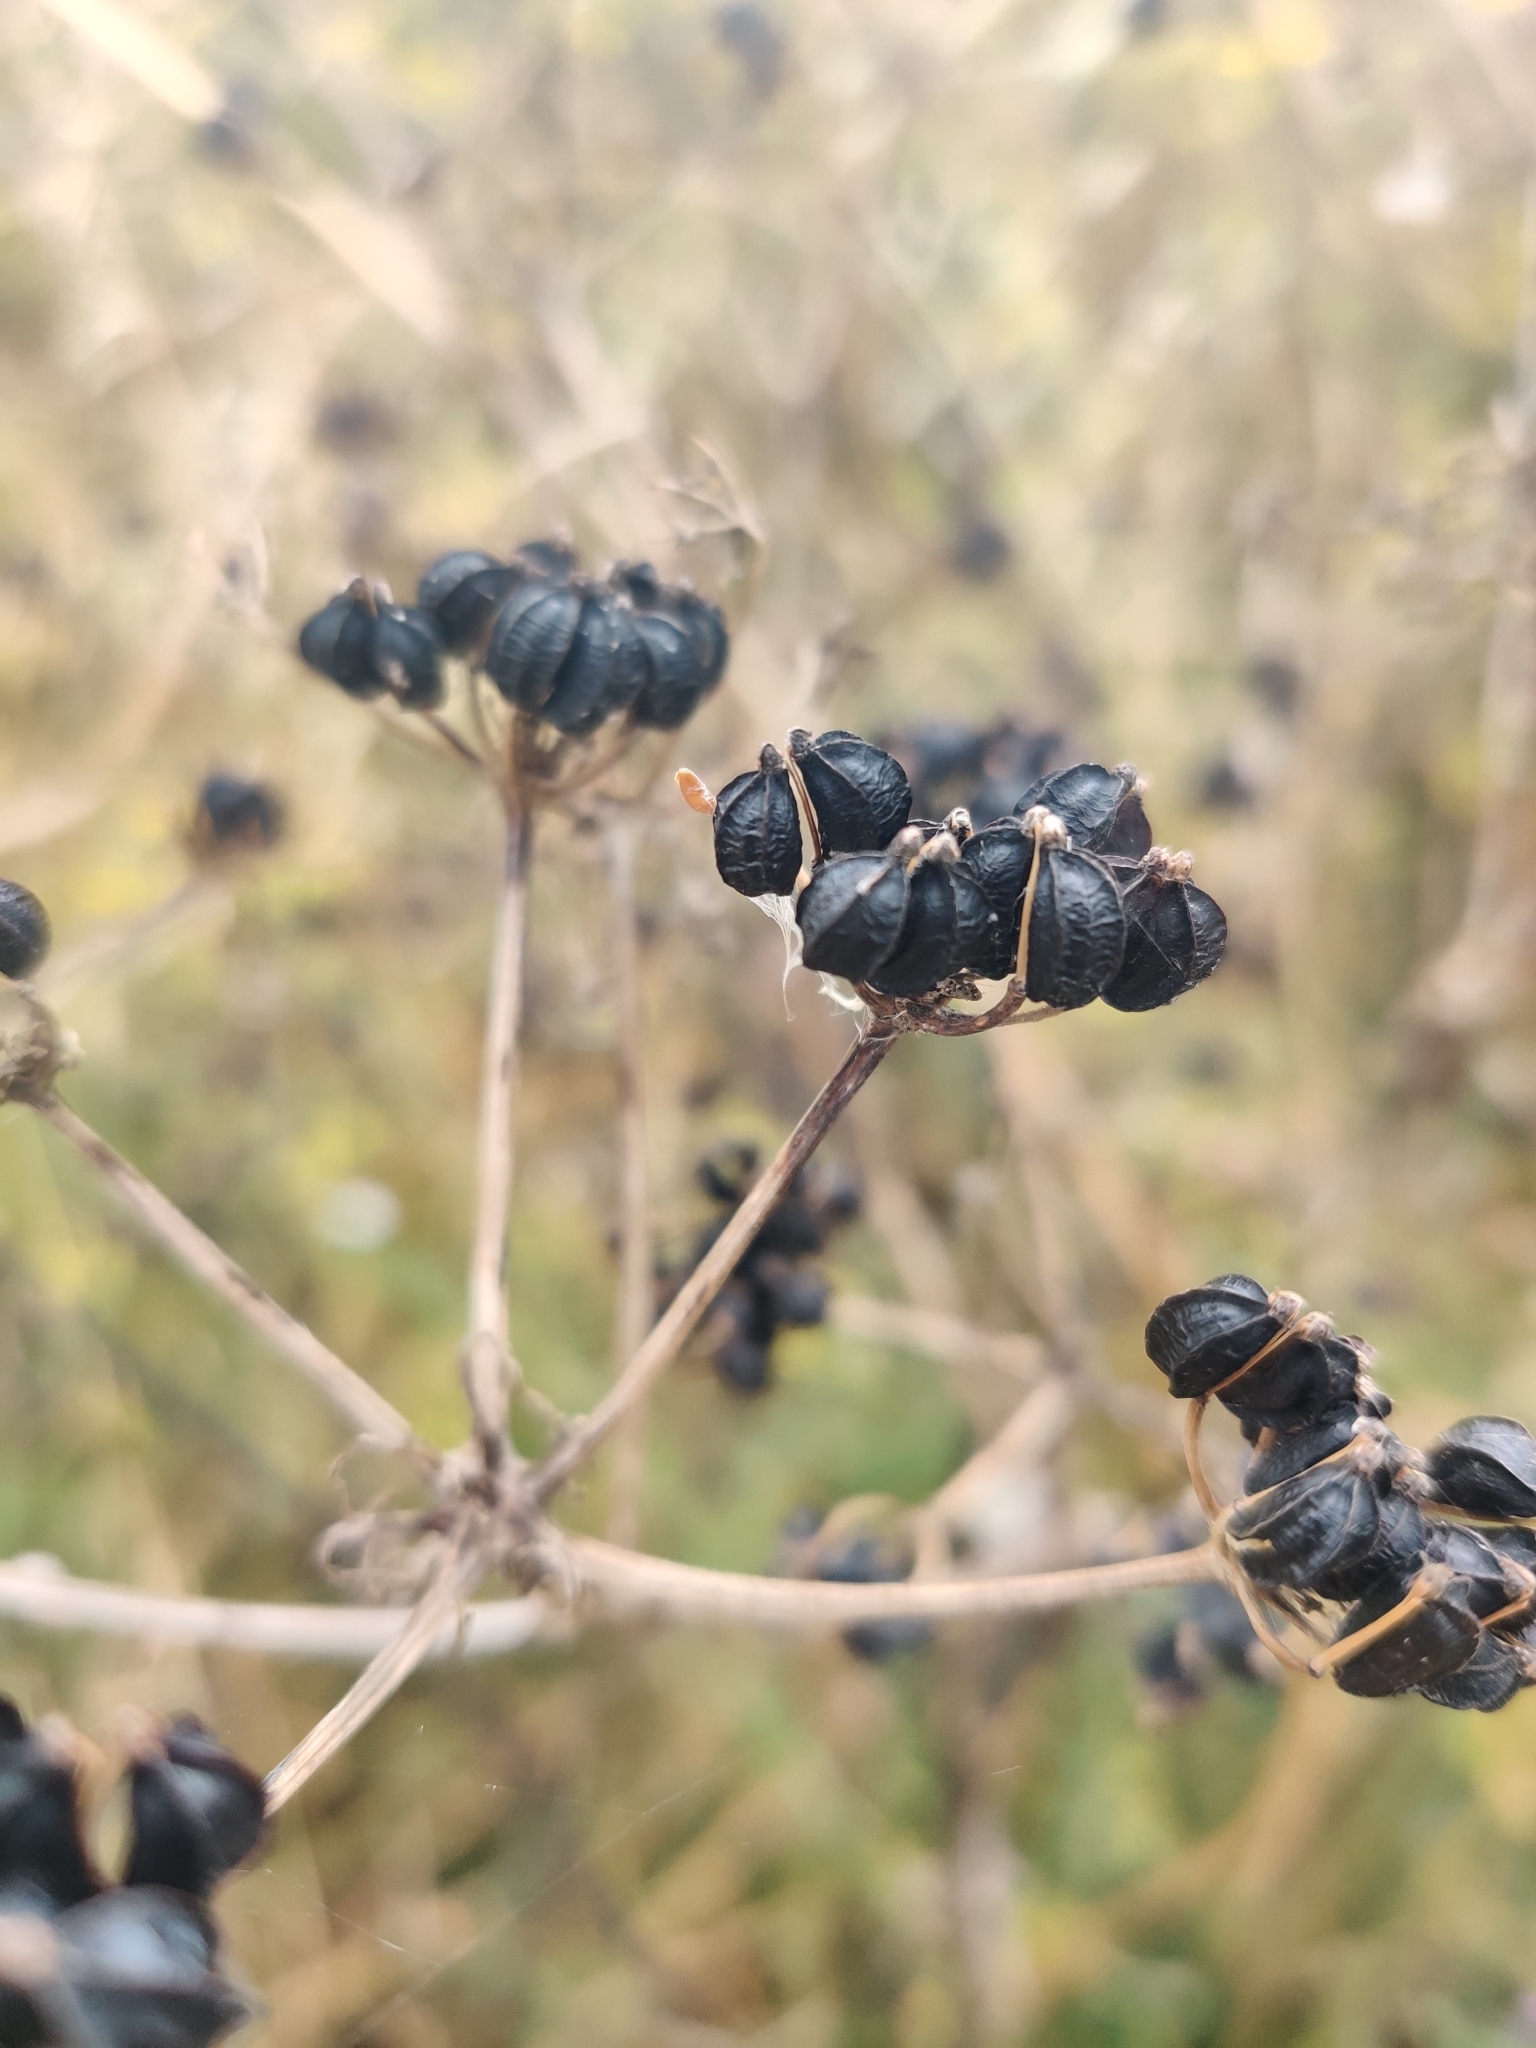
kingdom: Plantae
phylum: Tracheophyta
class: Magnoliopsida
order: Apiales
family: Apiaceae
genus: Smyrnium
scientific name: Smyrnium olusatrum
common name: Alexanders
